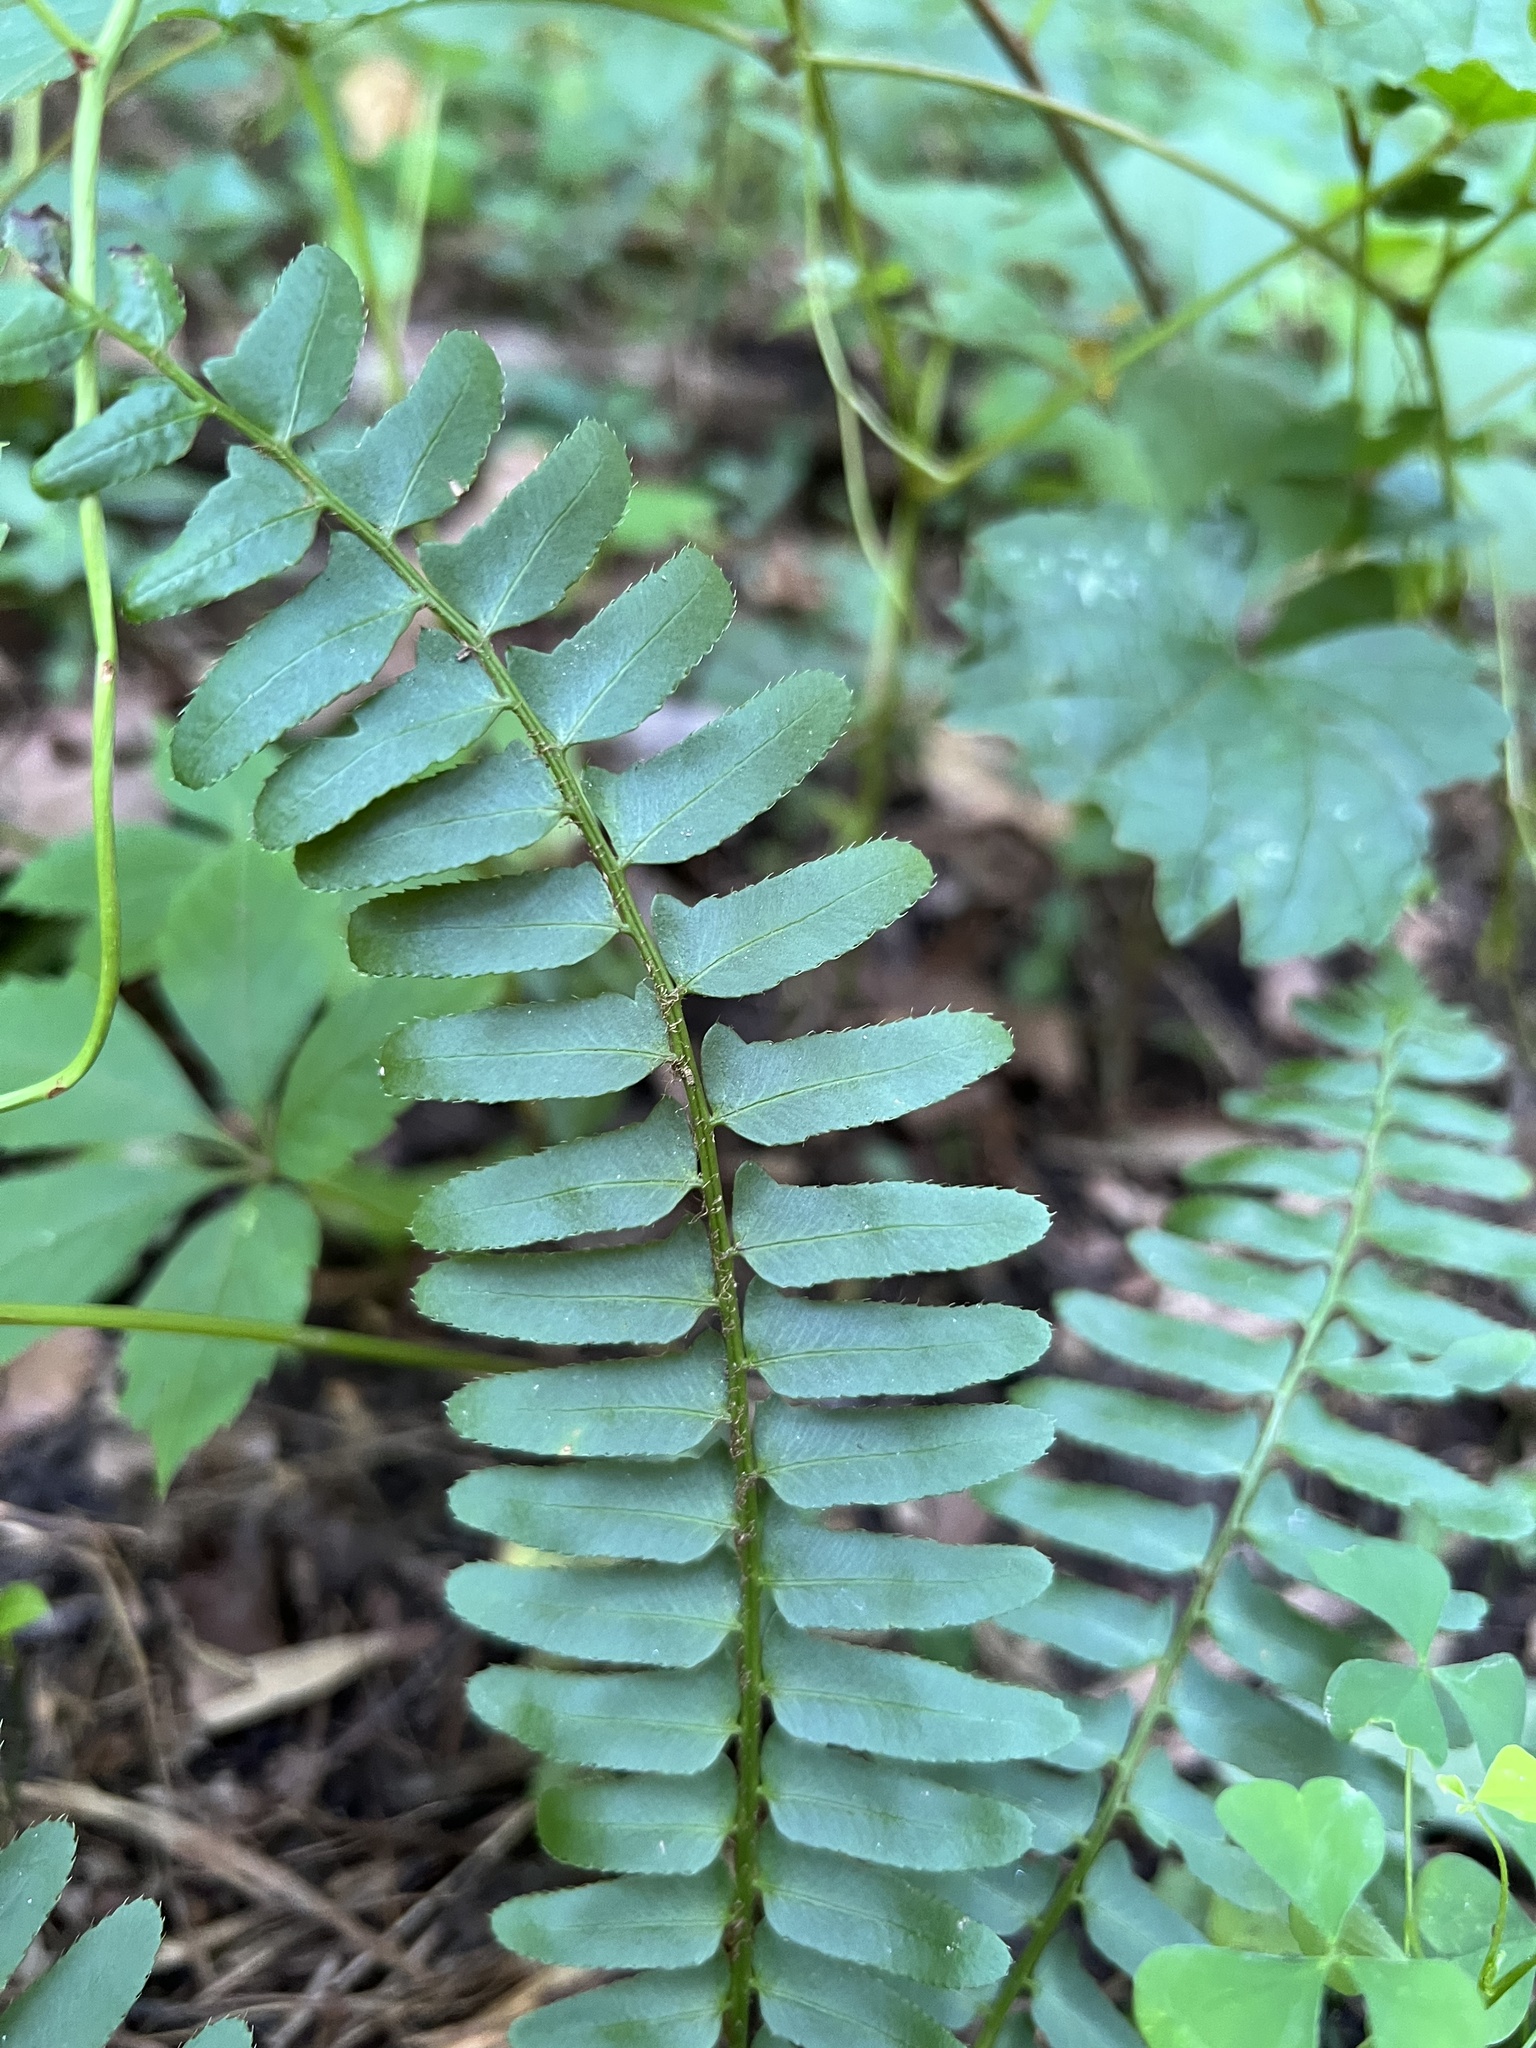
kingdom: Plantae
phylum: Tracheophyta
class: Polypodiopsida
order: Polypodiales
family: Dryopteridaceae
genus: Polystichum
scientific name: Polystichum acrostichoides
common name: Christmas fern
